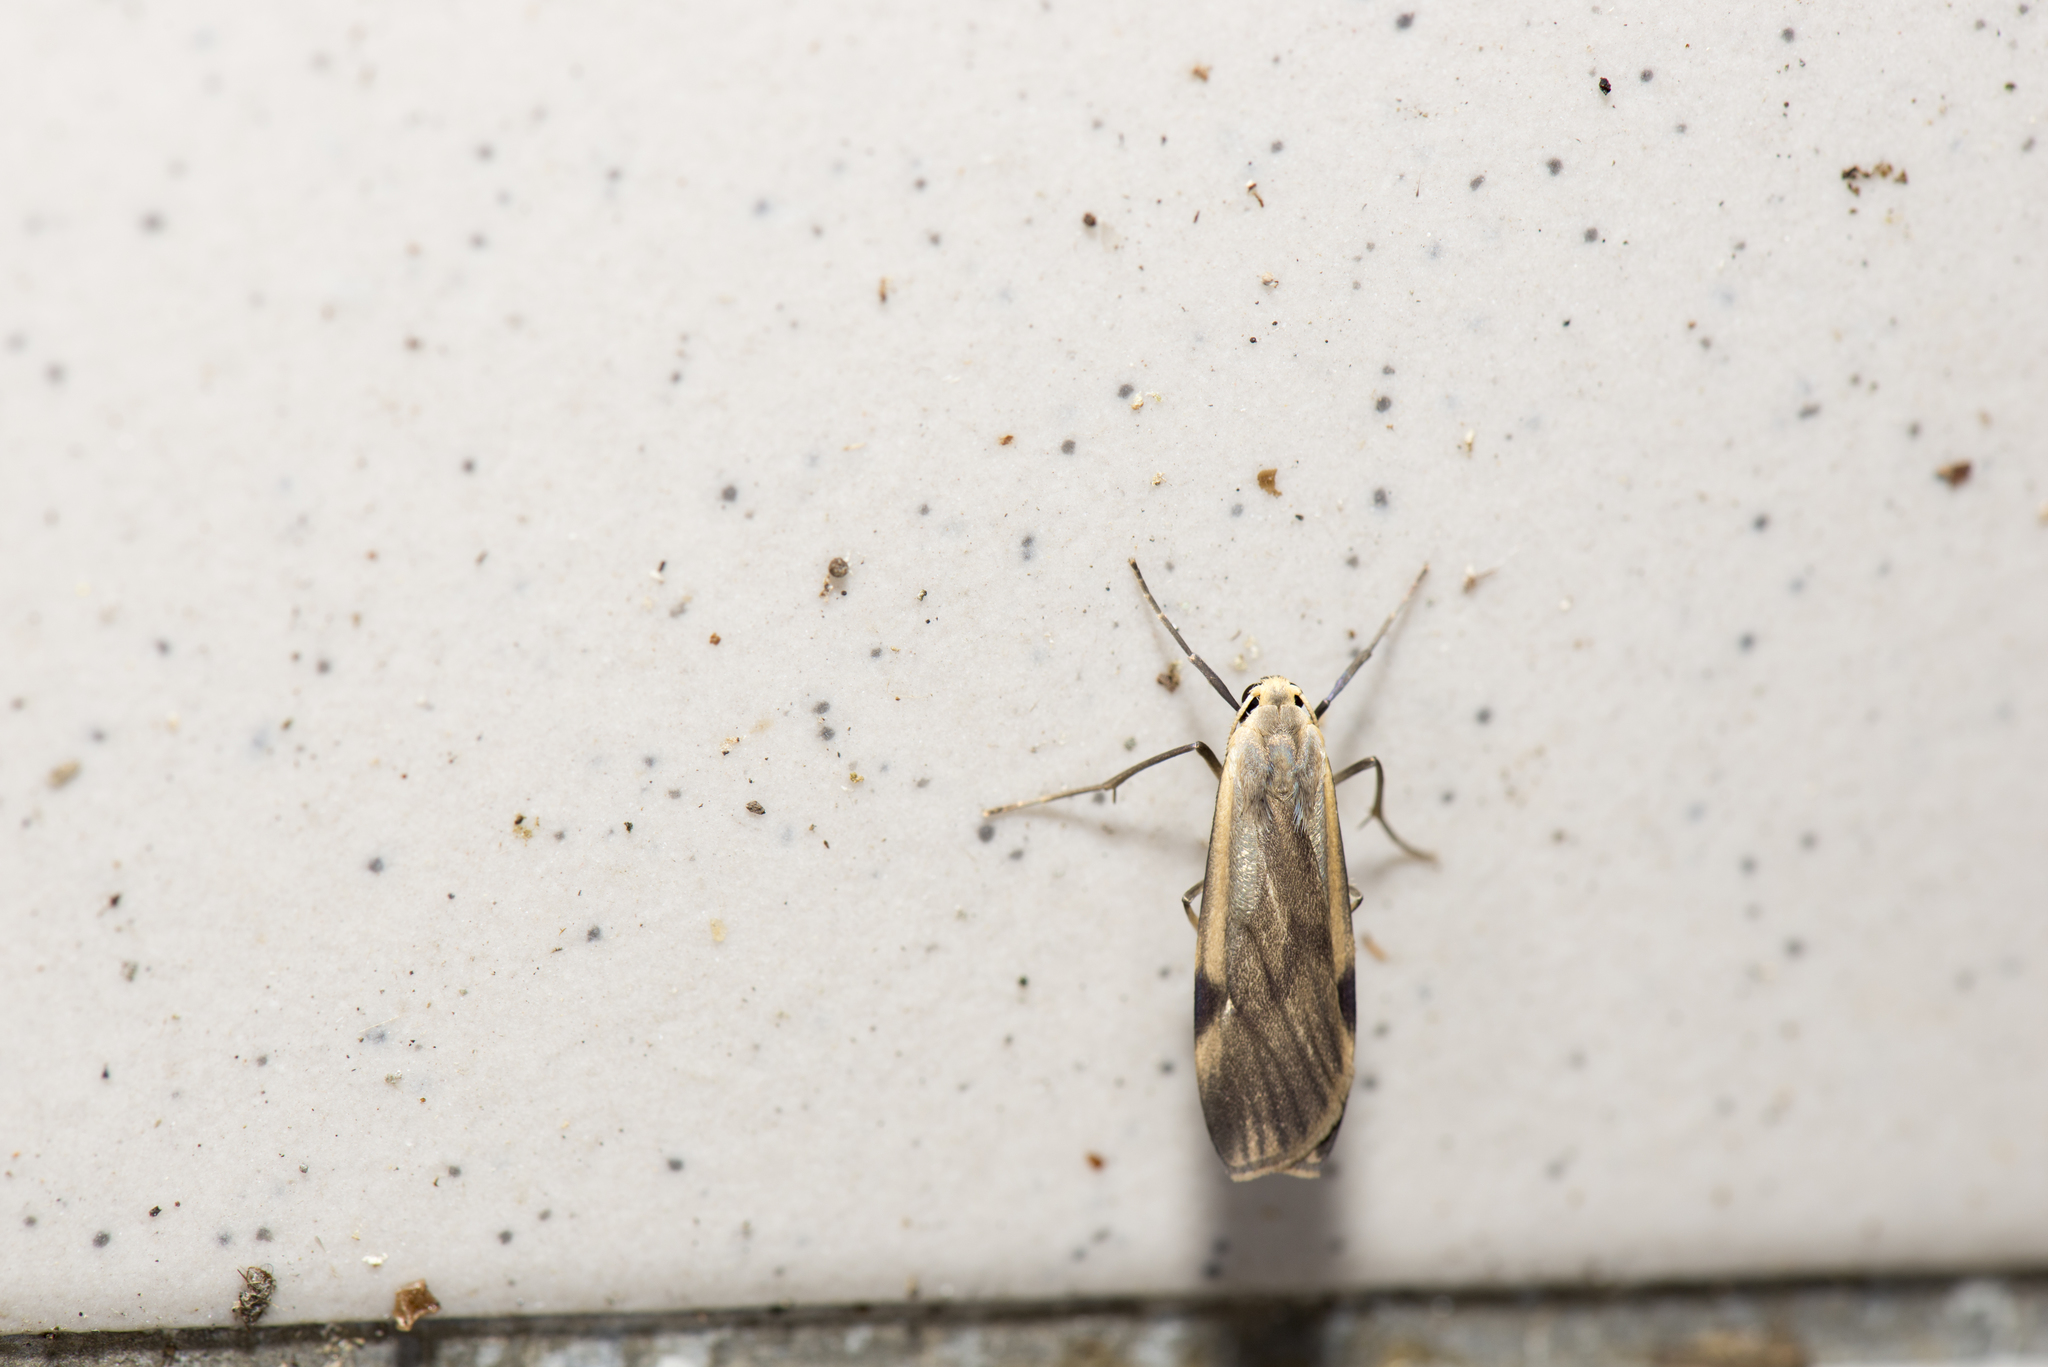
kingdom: Animalia
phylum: Arthropoda
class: Insecta
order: Lepidoptera
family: Erebidae
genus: Chinasa
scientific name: Chinasa costalis
